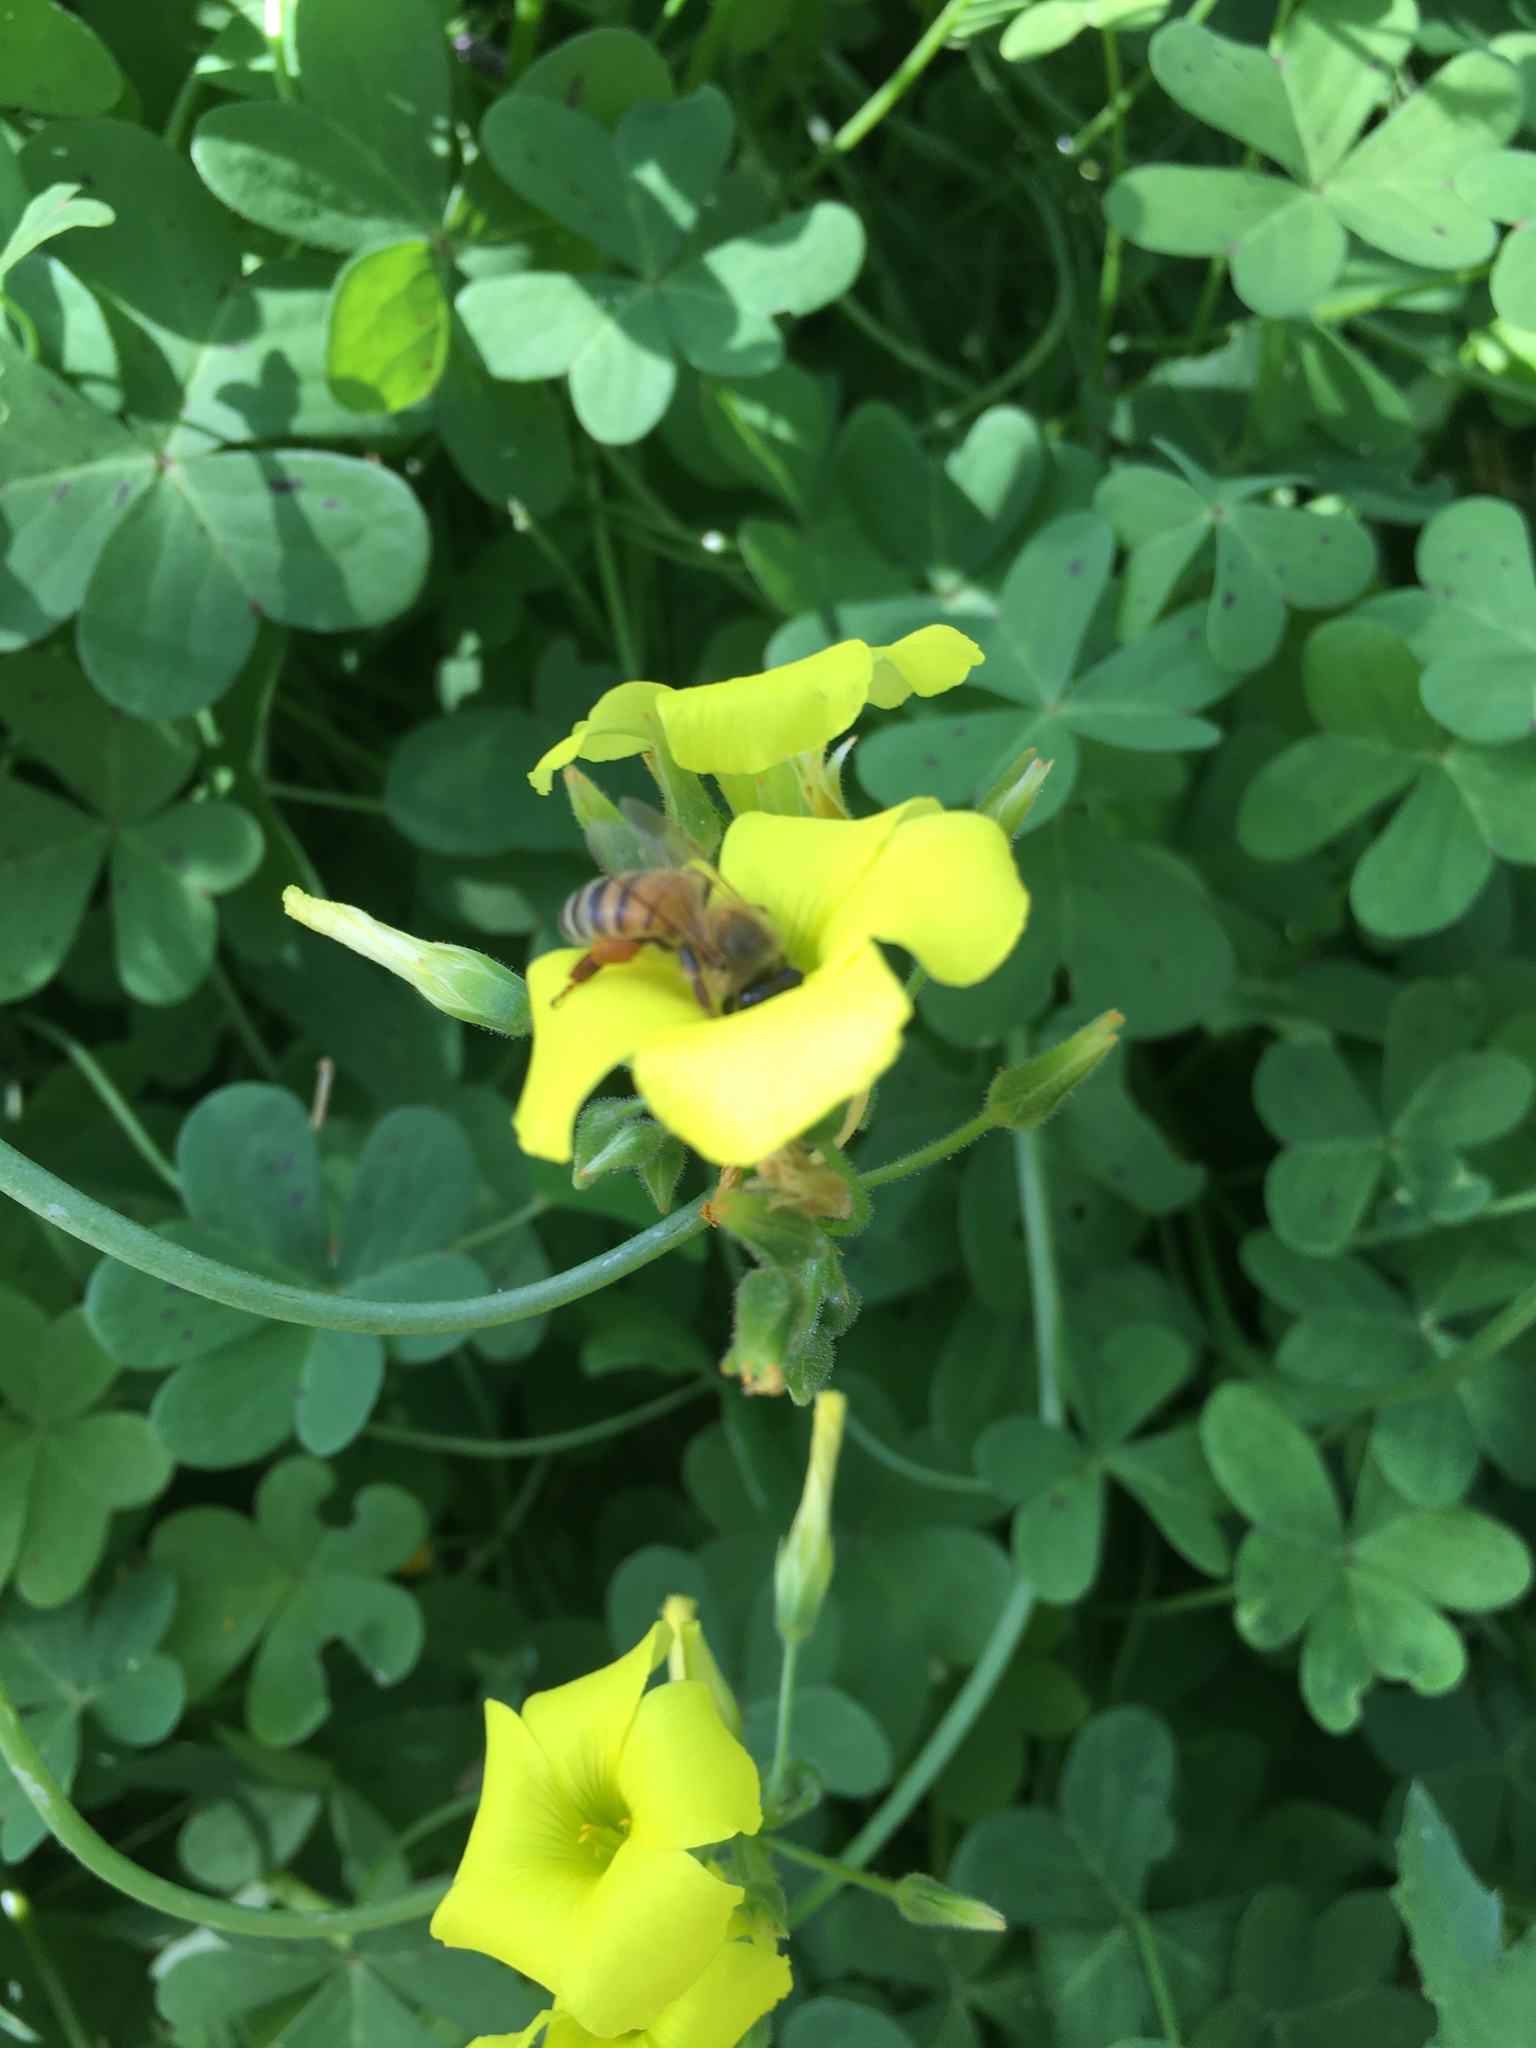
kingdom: Animalia
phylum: Arthropoda
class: Insecta
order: Hymenoptera
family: Apidae
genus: Apis
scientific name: Apis mellifera
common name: Honey bee
